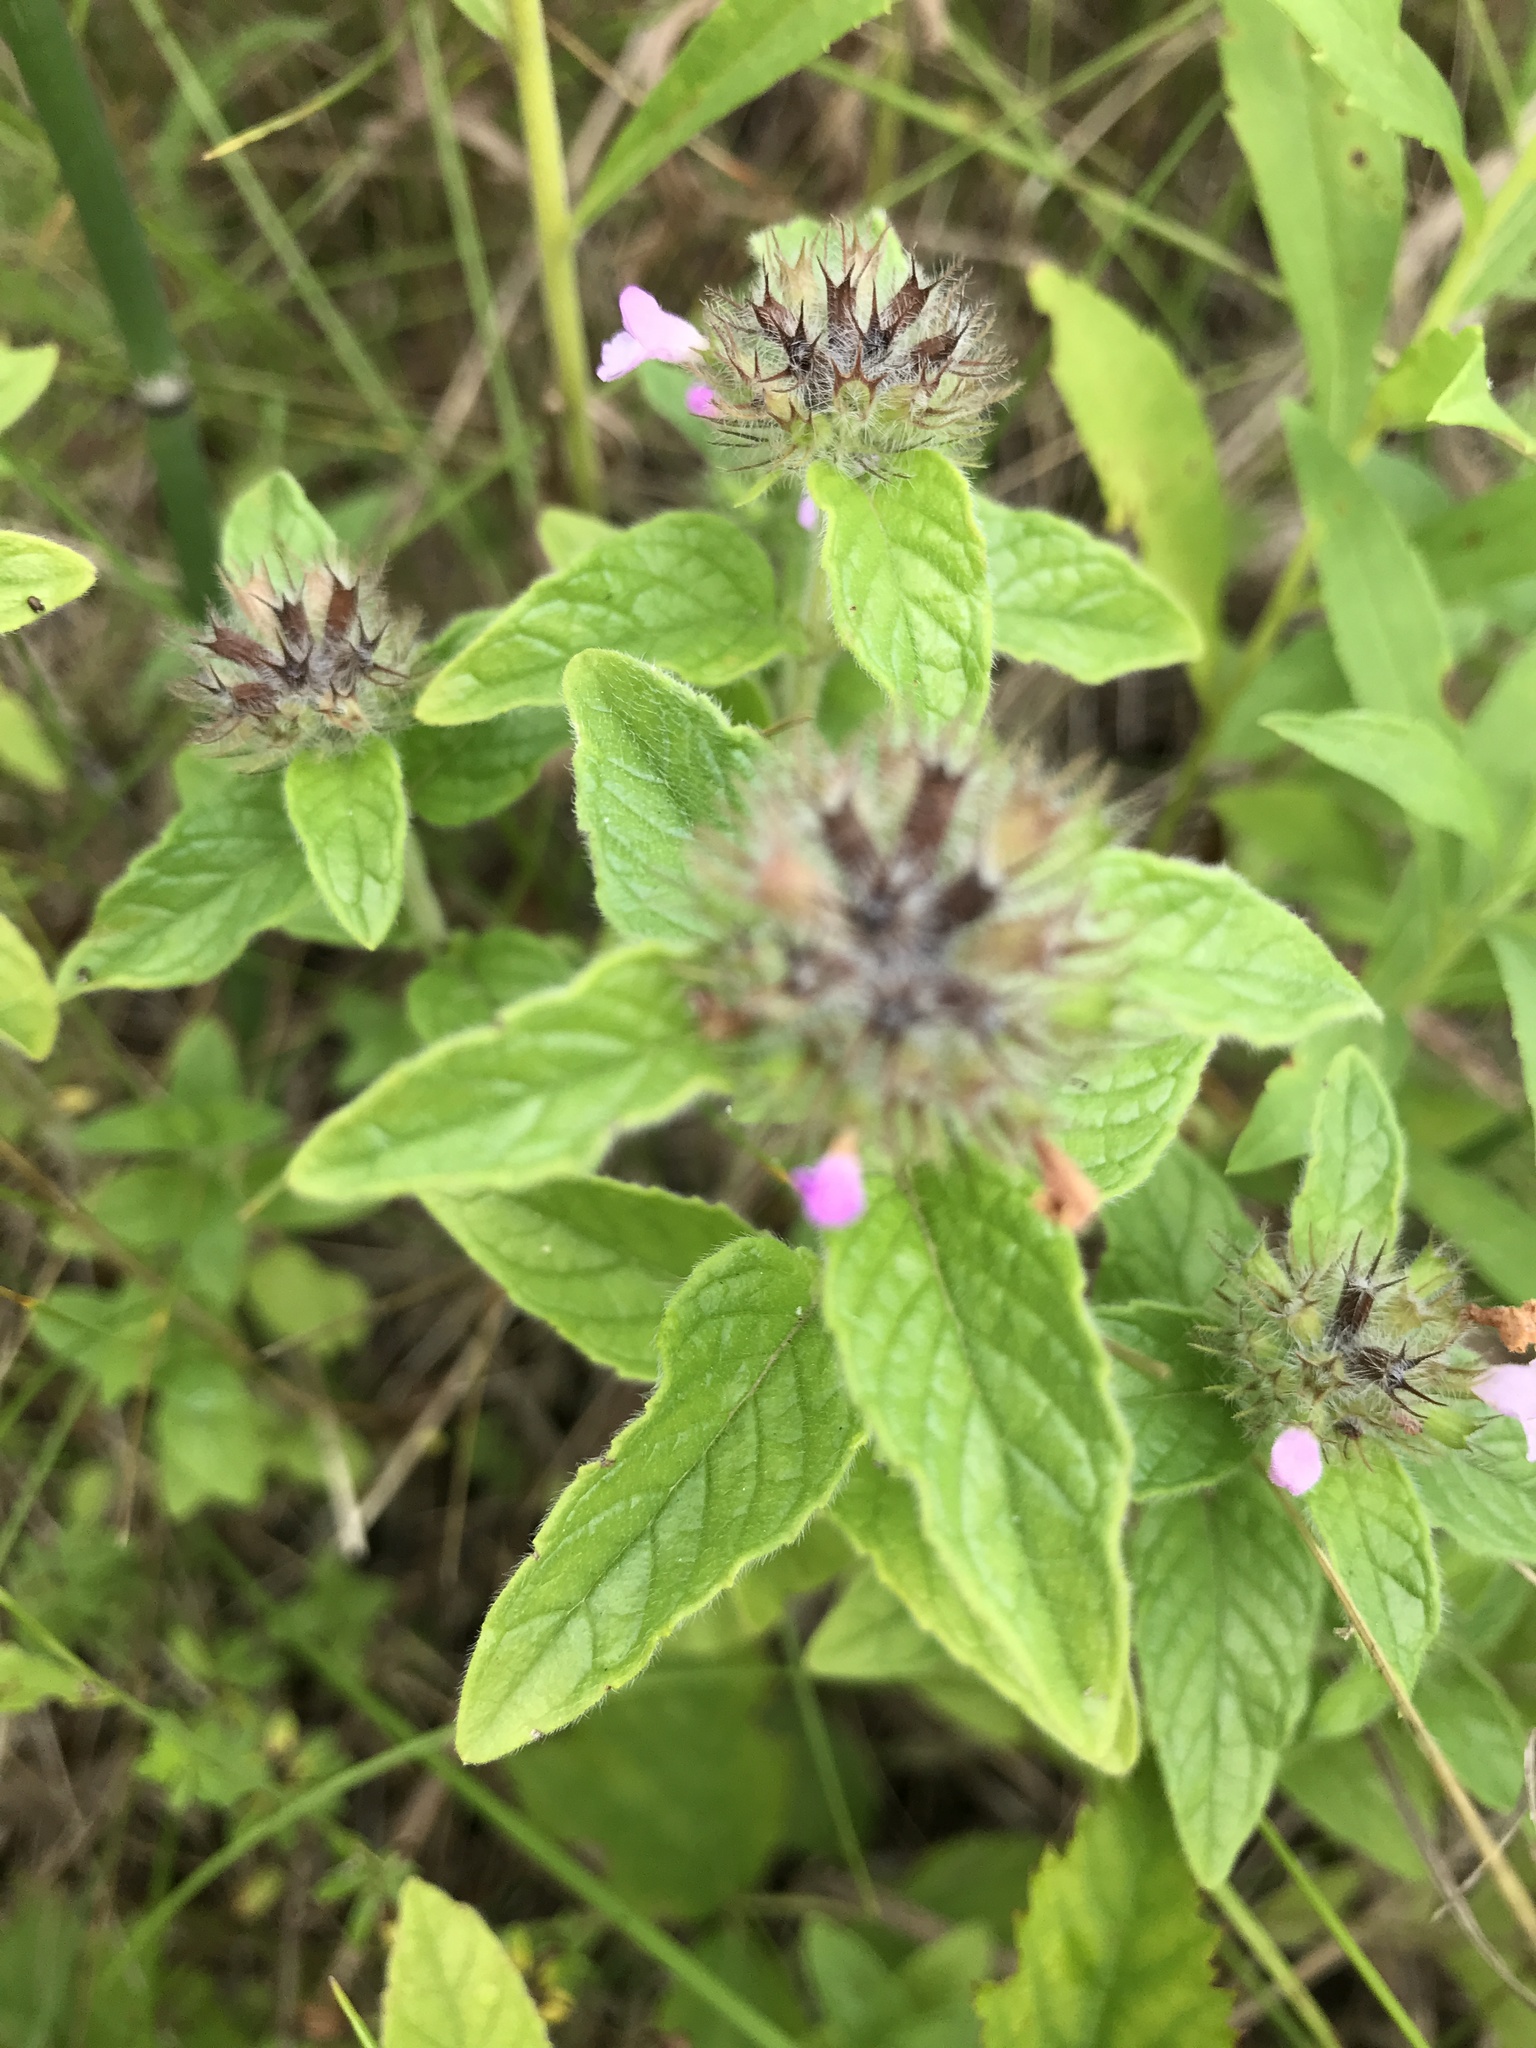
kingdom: Plantae
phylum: Tracheophyta
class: Magnoliopsida
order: Lamiales
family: Lamiaceae
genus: Clinopodium
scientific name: Clinopodium vulgare
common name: Wild basil
